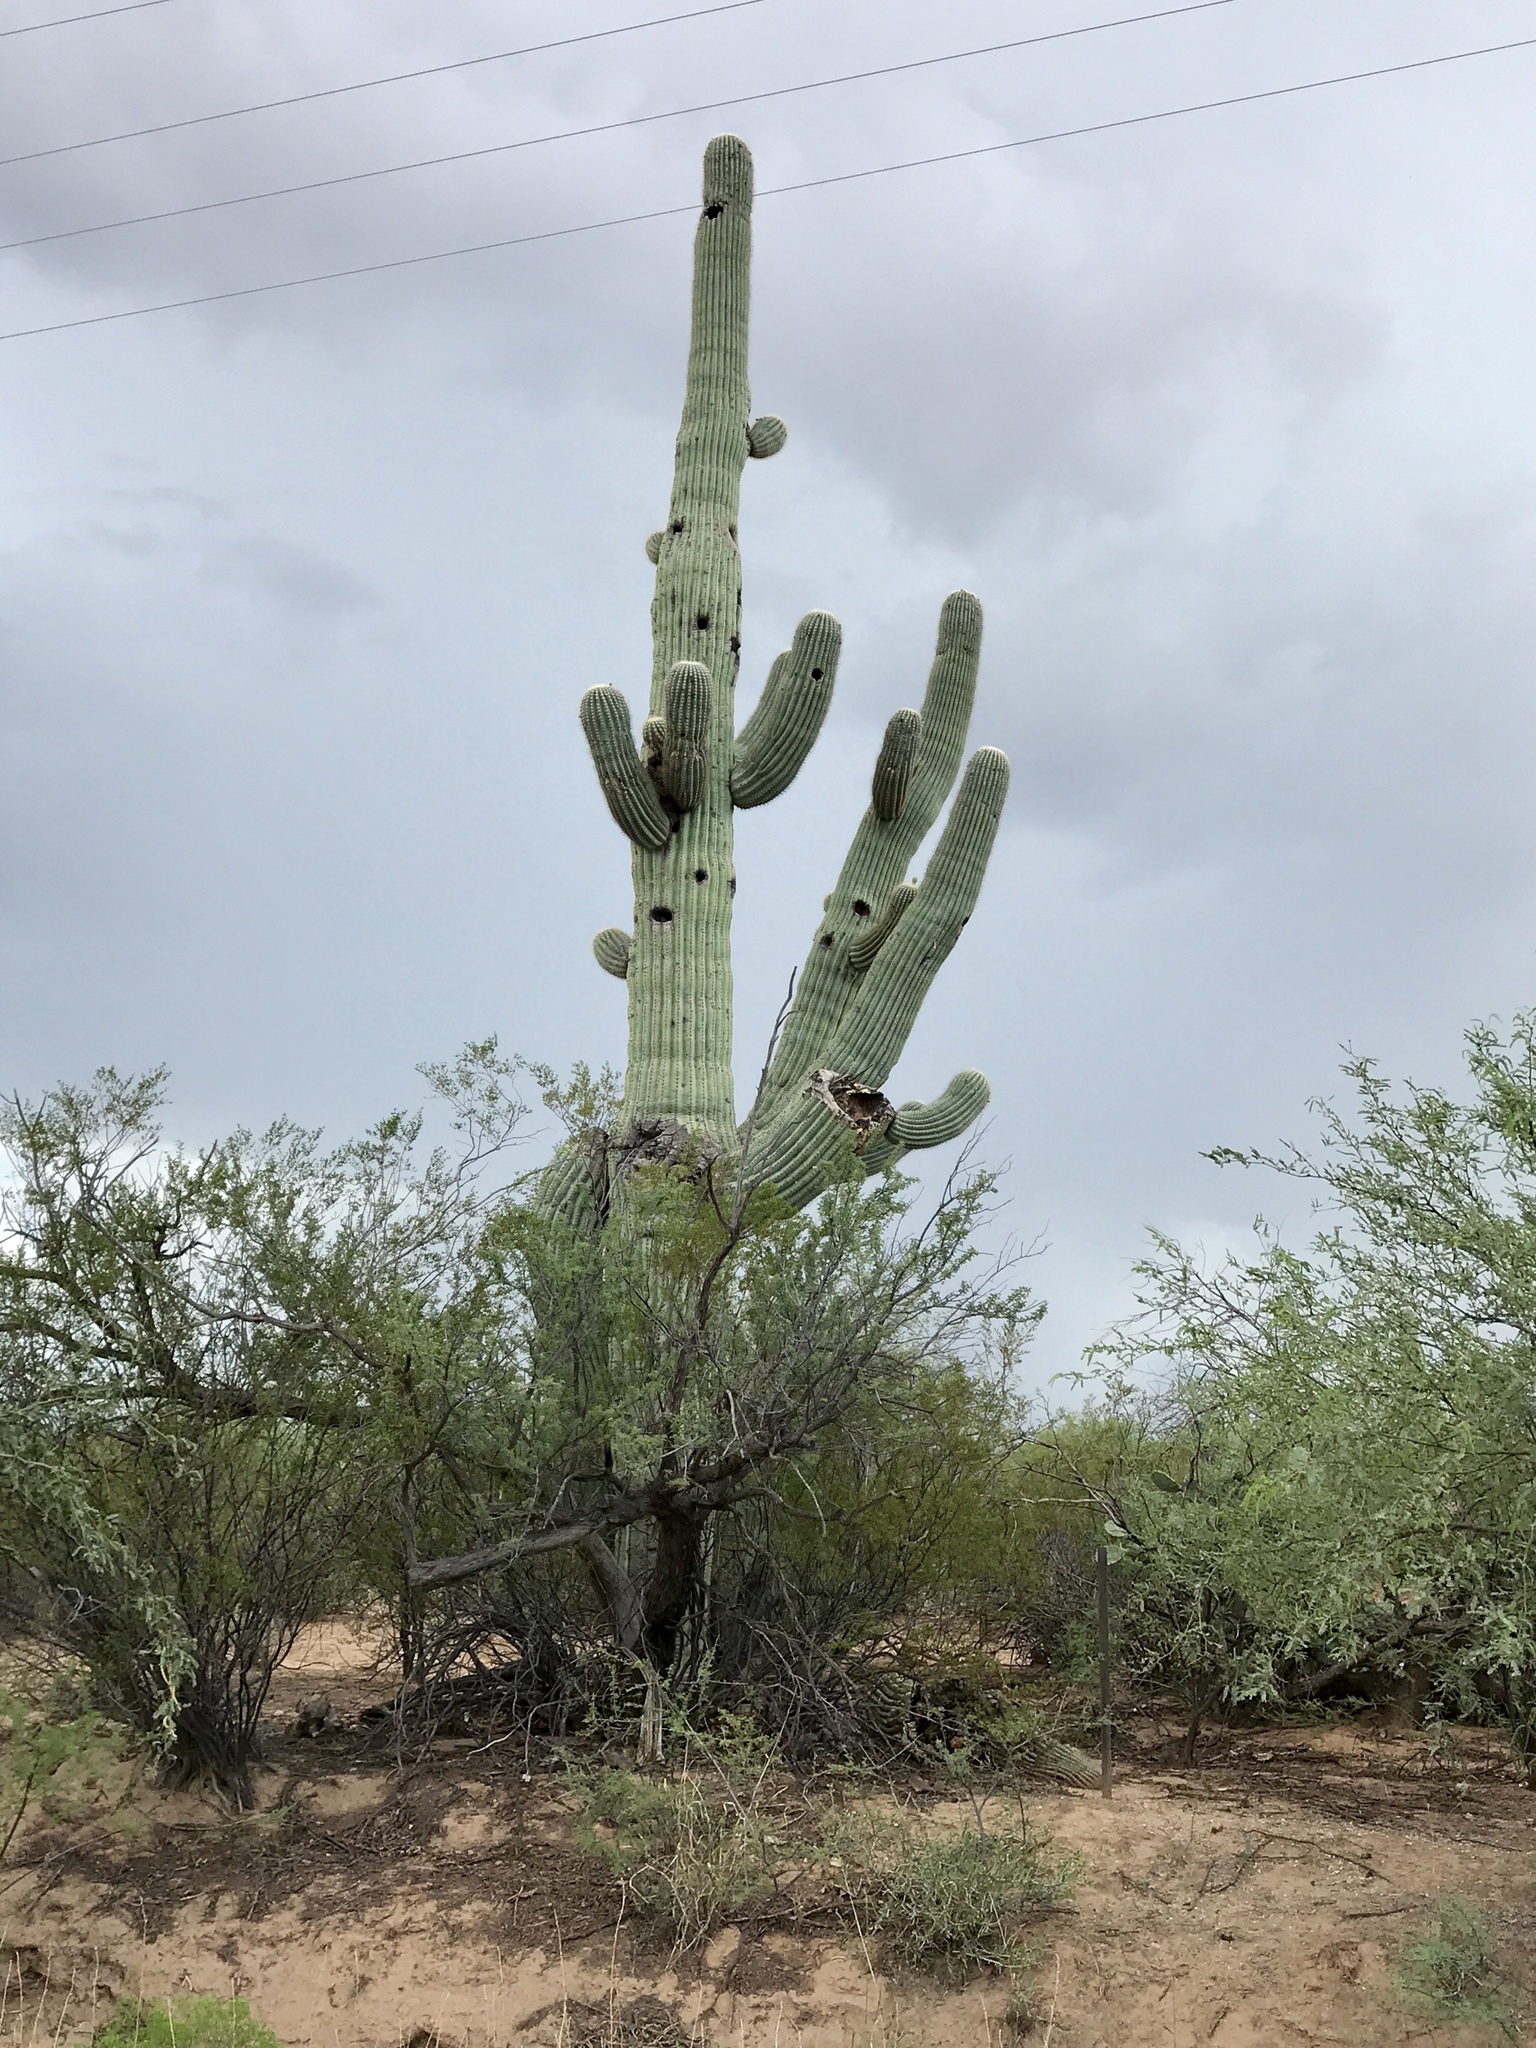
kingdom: Plantae
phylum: Tracheophyta
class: Magnoliopsida
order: Caryophyllales
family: Cactaceae
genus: Carnegiea
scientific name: Carnegiea gigantea
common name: Saguaro
